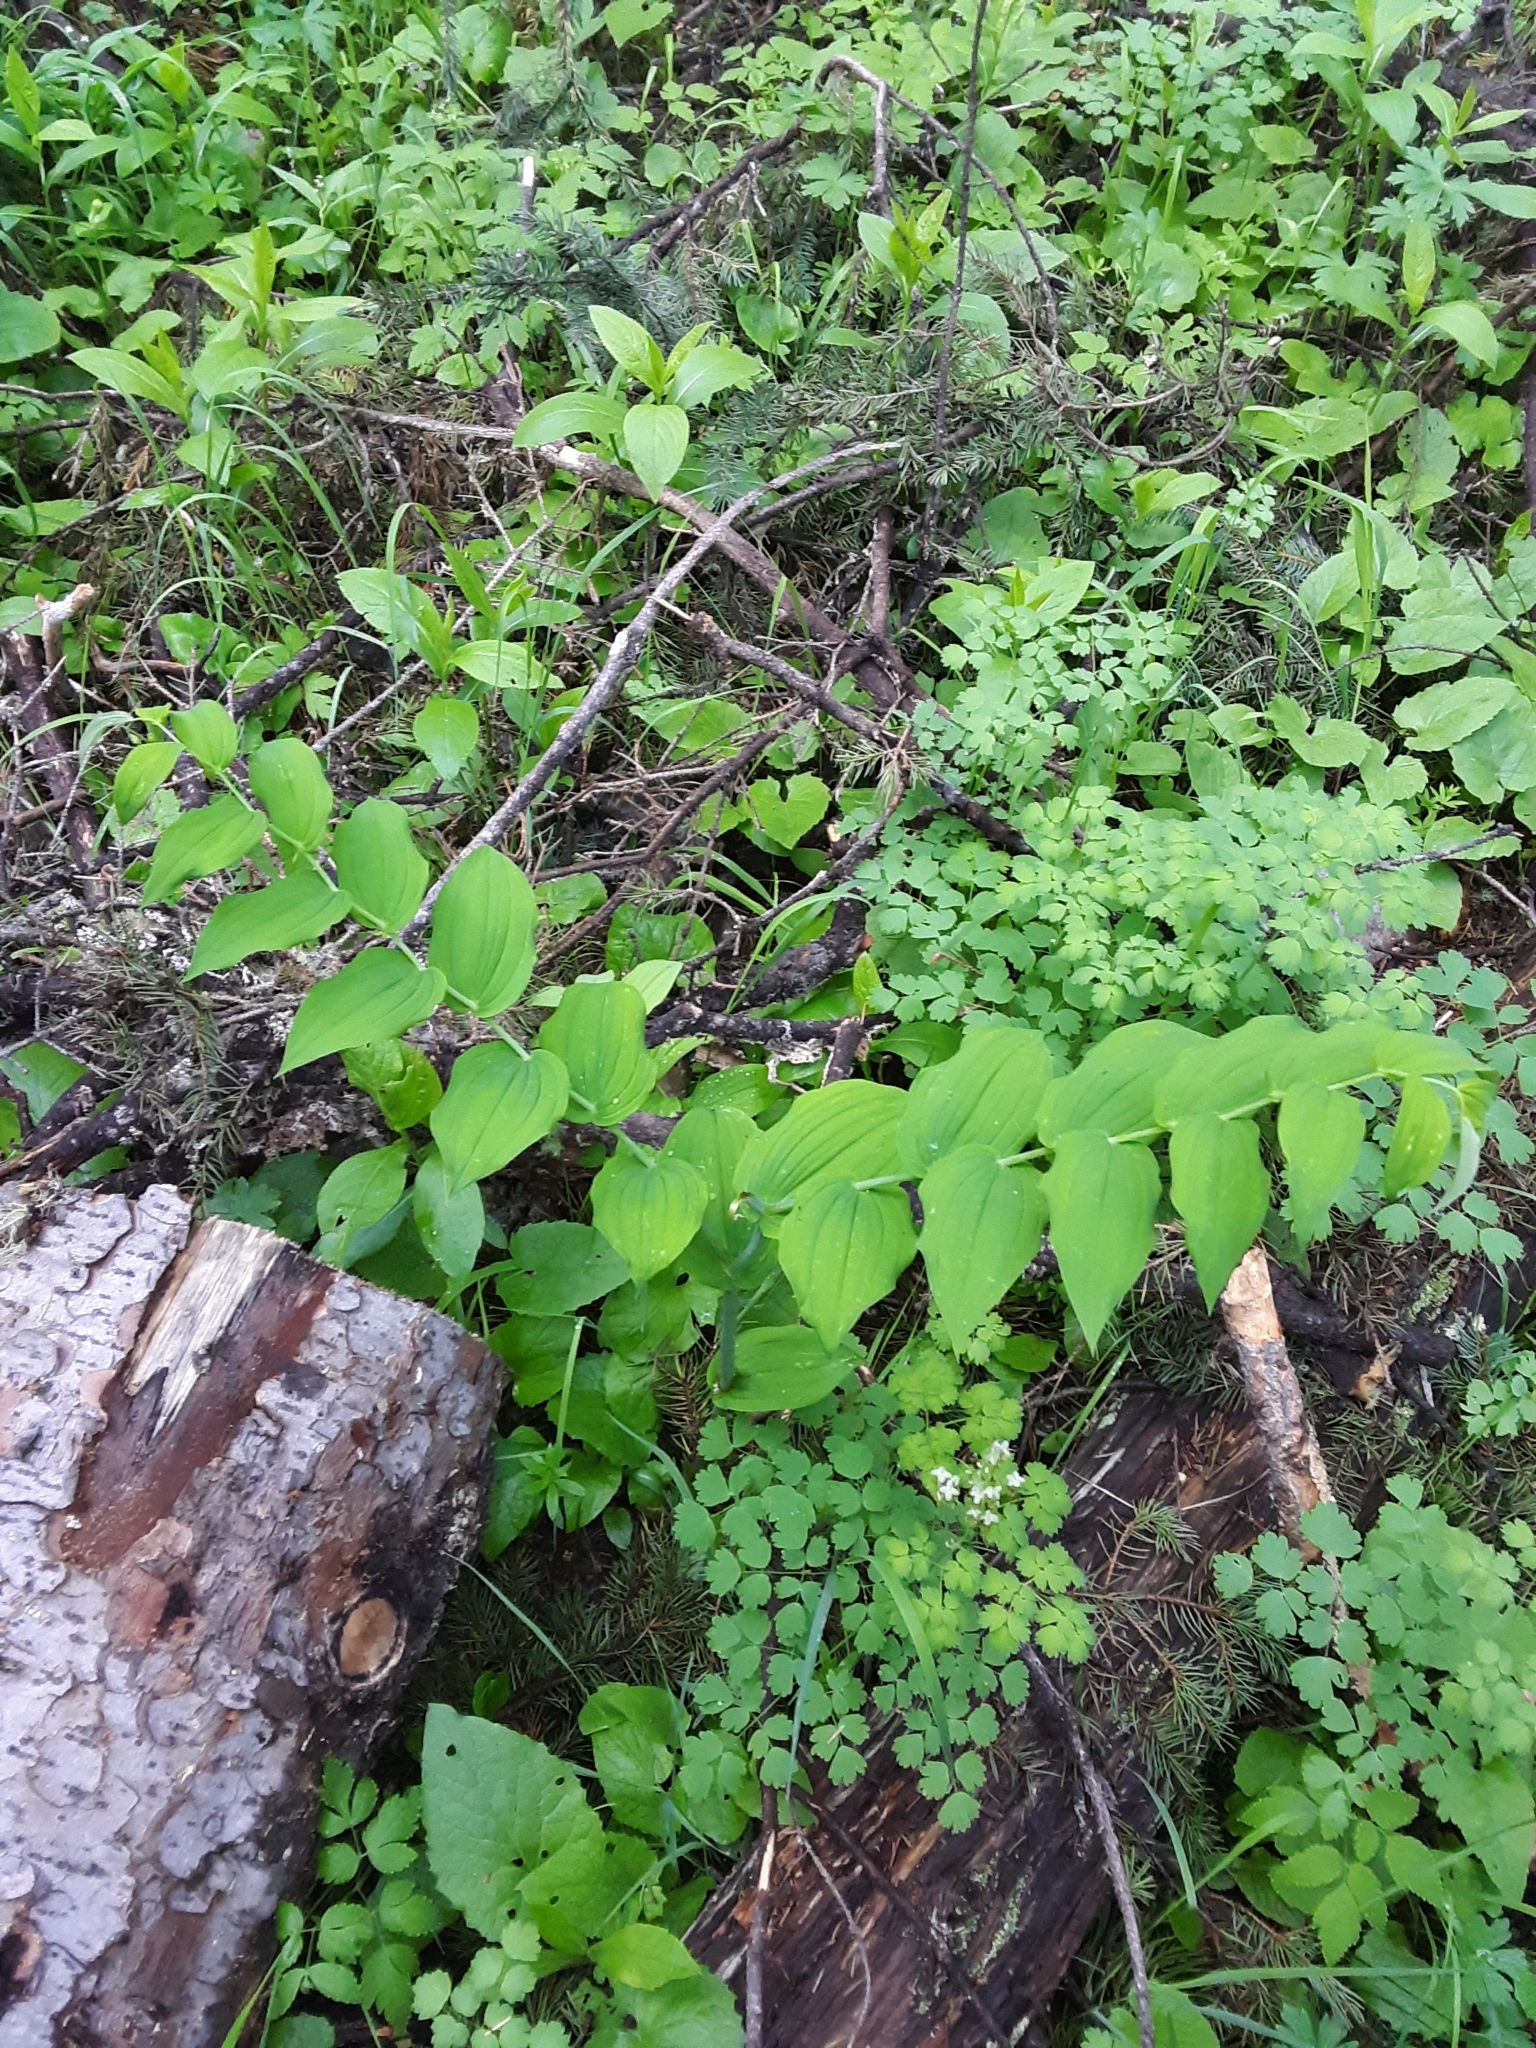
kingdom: Plantae
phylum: Tracheophyta
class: Liliopsida
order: Liliales
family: Liliaceae
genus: Streptopus
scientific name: Streptopus amplexifolius
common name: Clasp twisted stalk
